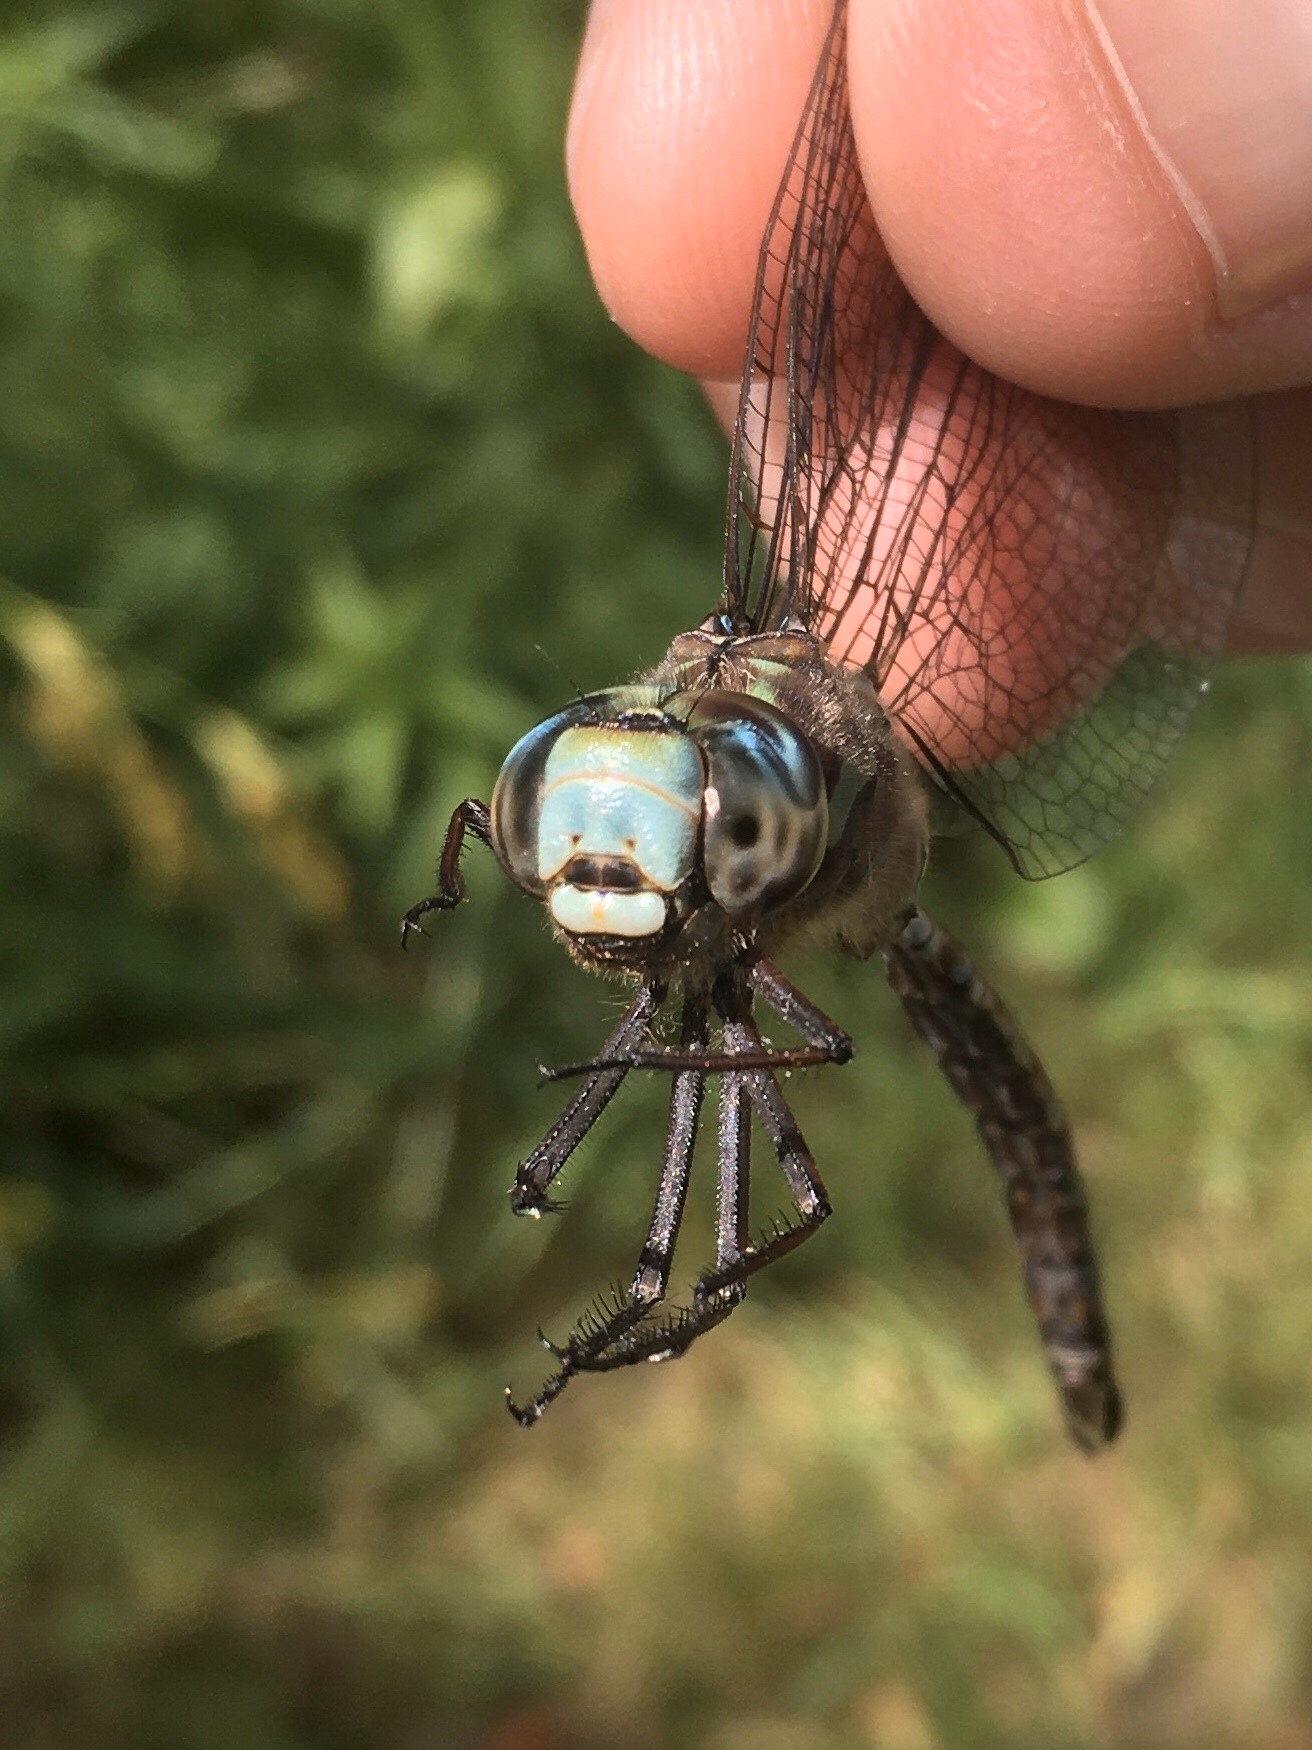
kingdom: Animalia
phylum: Arthropoda
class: Insecta
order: Odonata
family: Aeshnidae
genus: Aeshna
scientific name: Aeshna canadensis
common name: Canada darner
